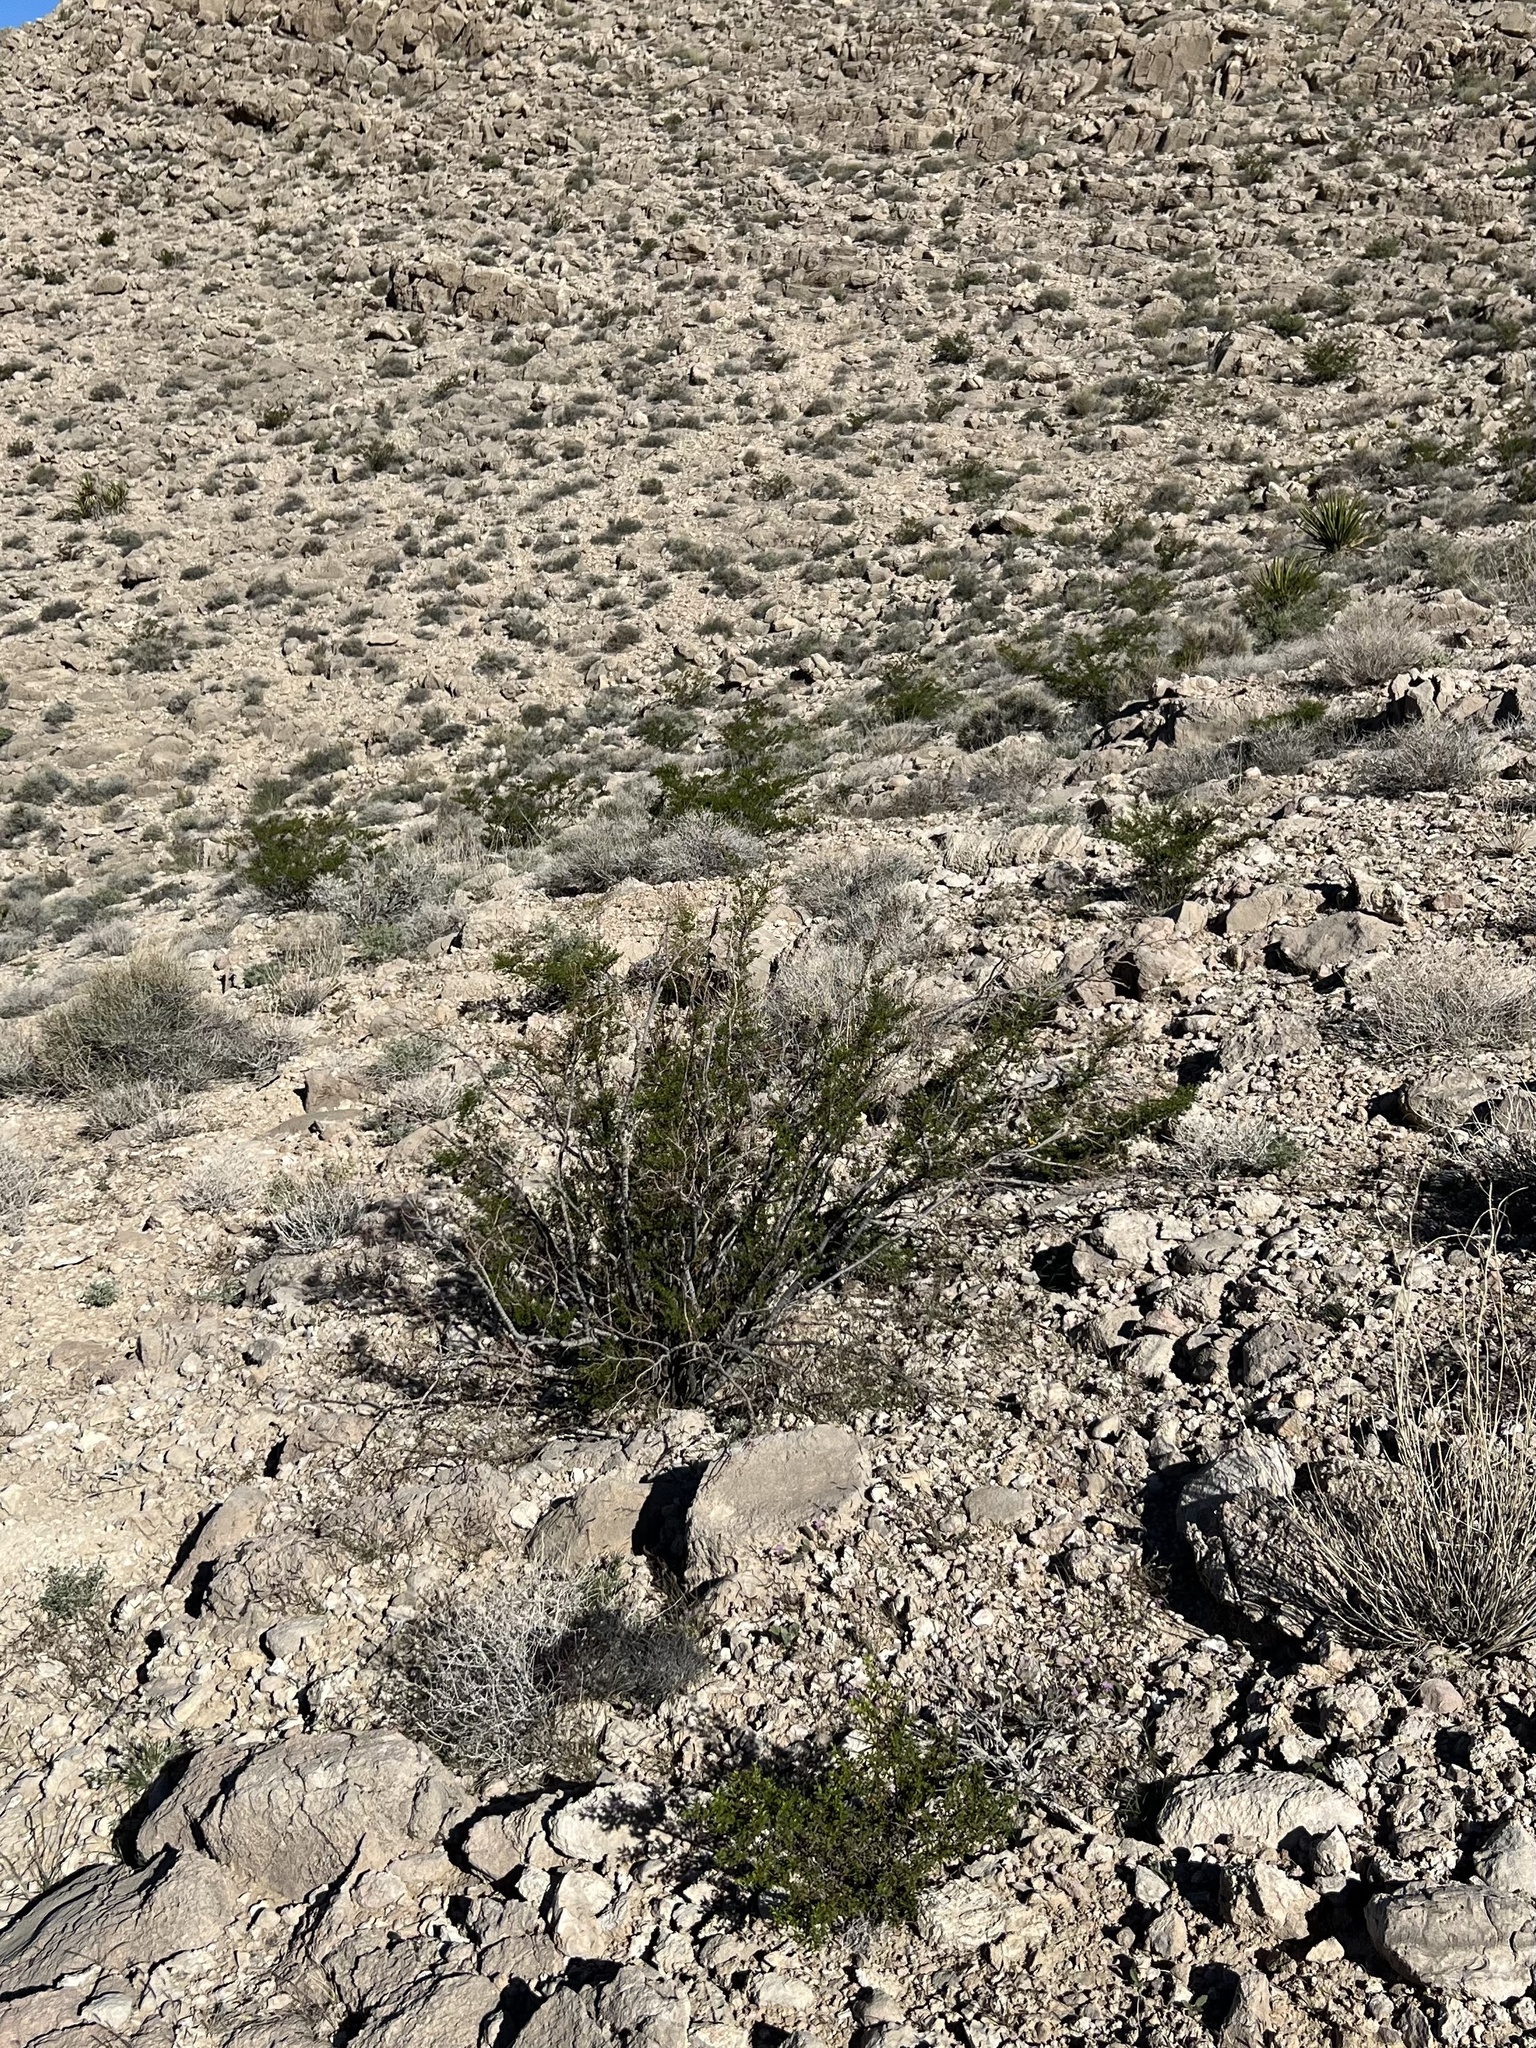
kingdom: Plantae
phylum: Tracheophyta
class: Magnoliopsida
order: Zygophyllales
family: Zygophyllaceae
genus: Larrea
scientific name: Larrea tridentata
